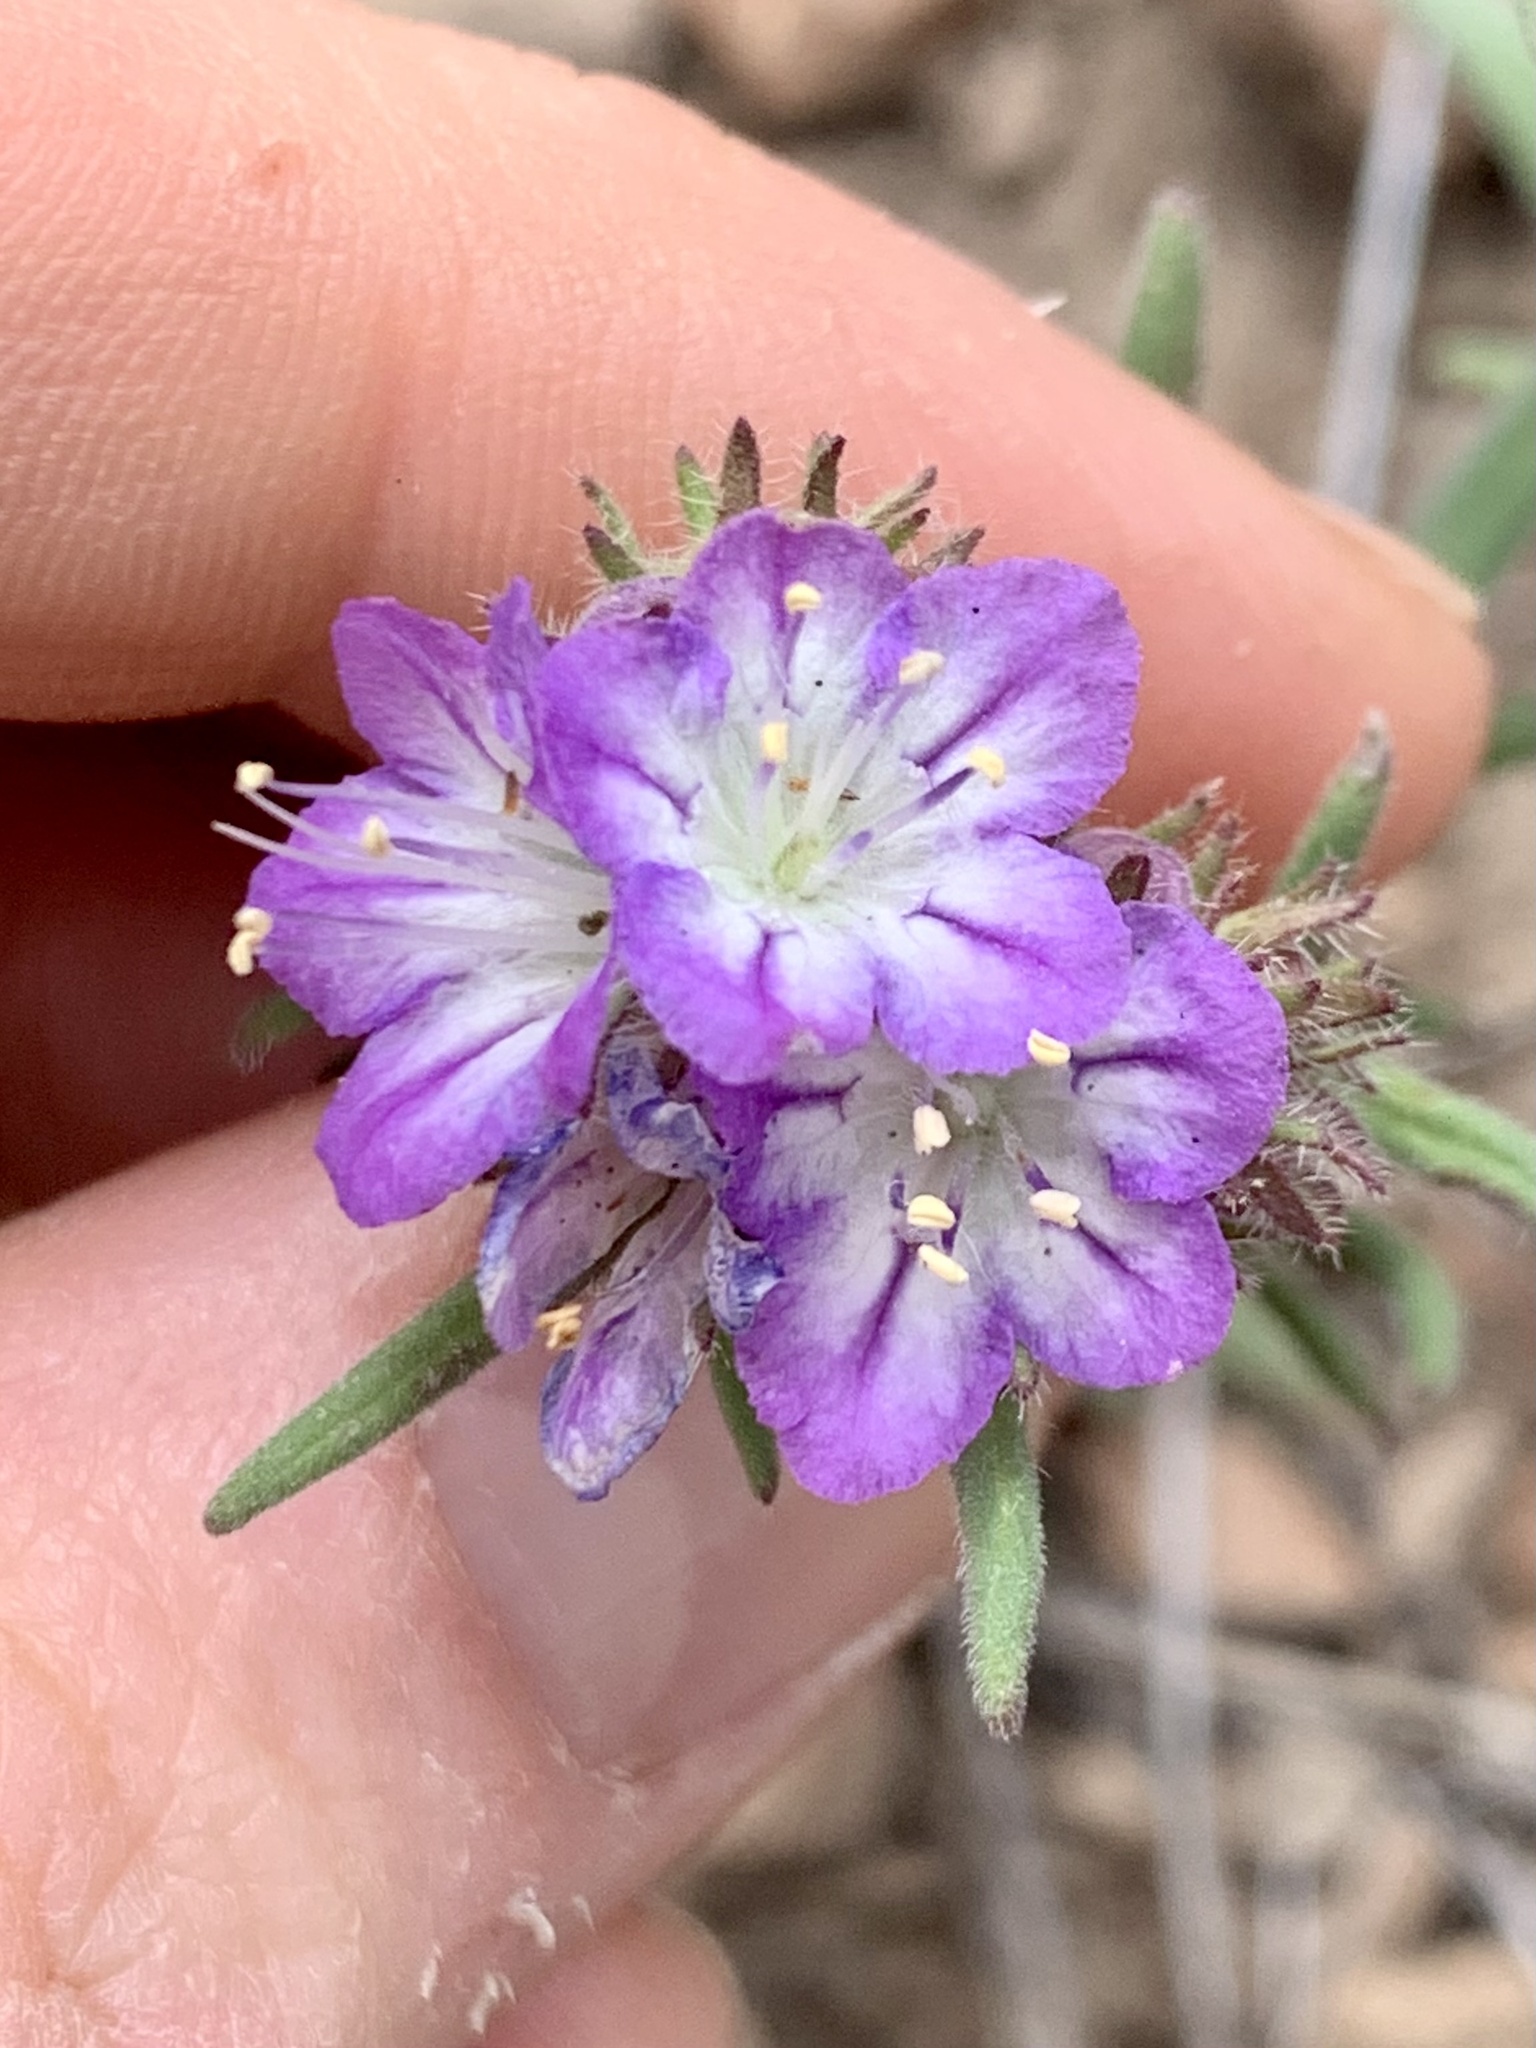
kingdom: Plantae
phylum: Tracheophyta
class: Magnoliopsida
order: Boraginales
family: Hydrophyllaceae
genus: Phacelia
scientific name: Phacelia linearis
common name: Linear-leaved phacelia
